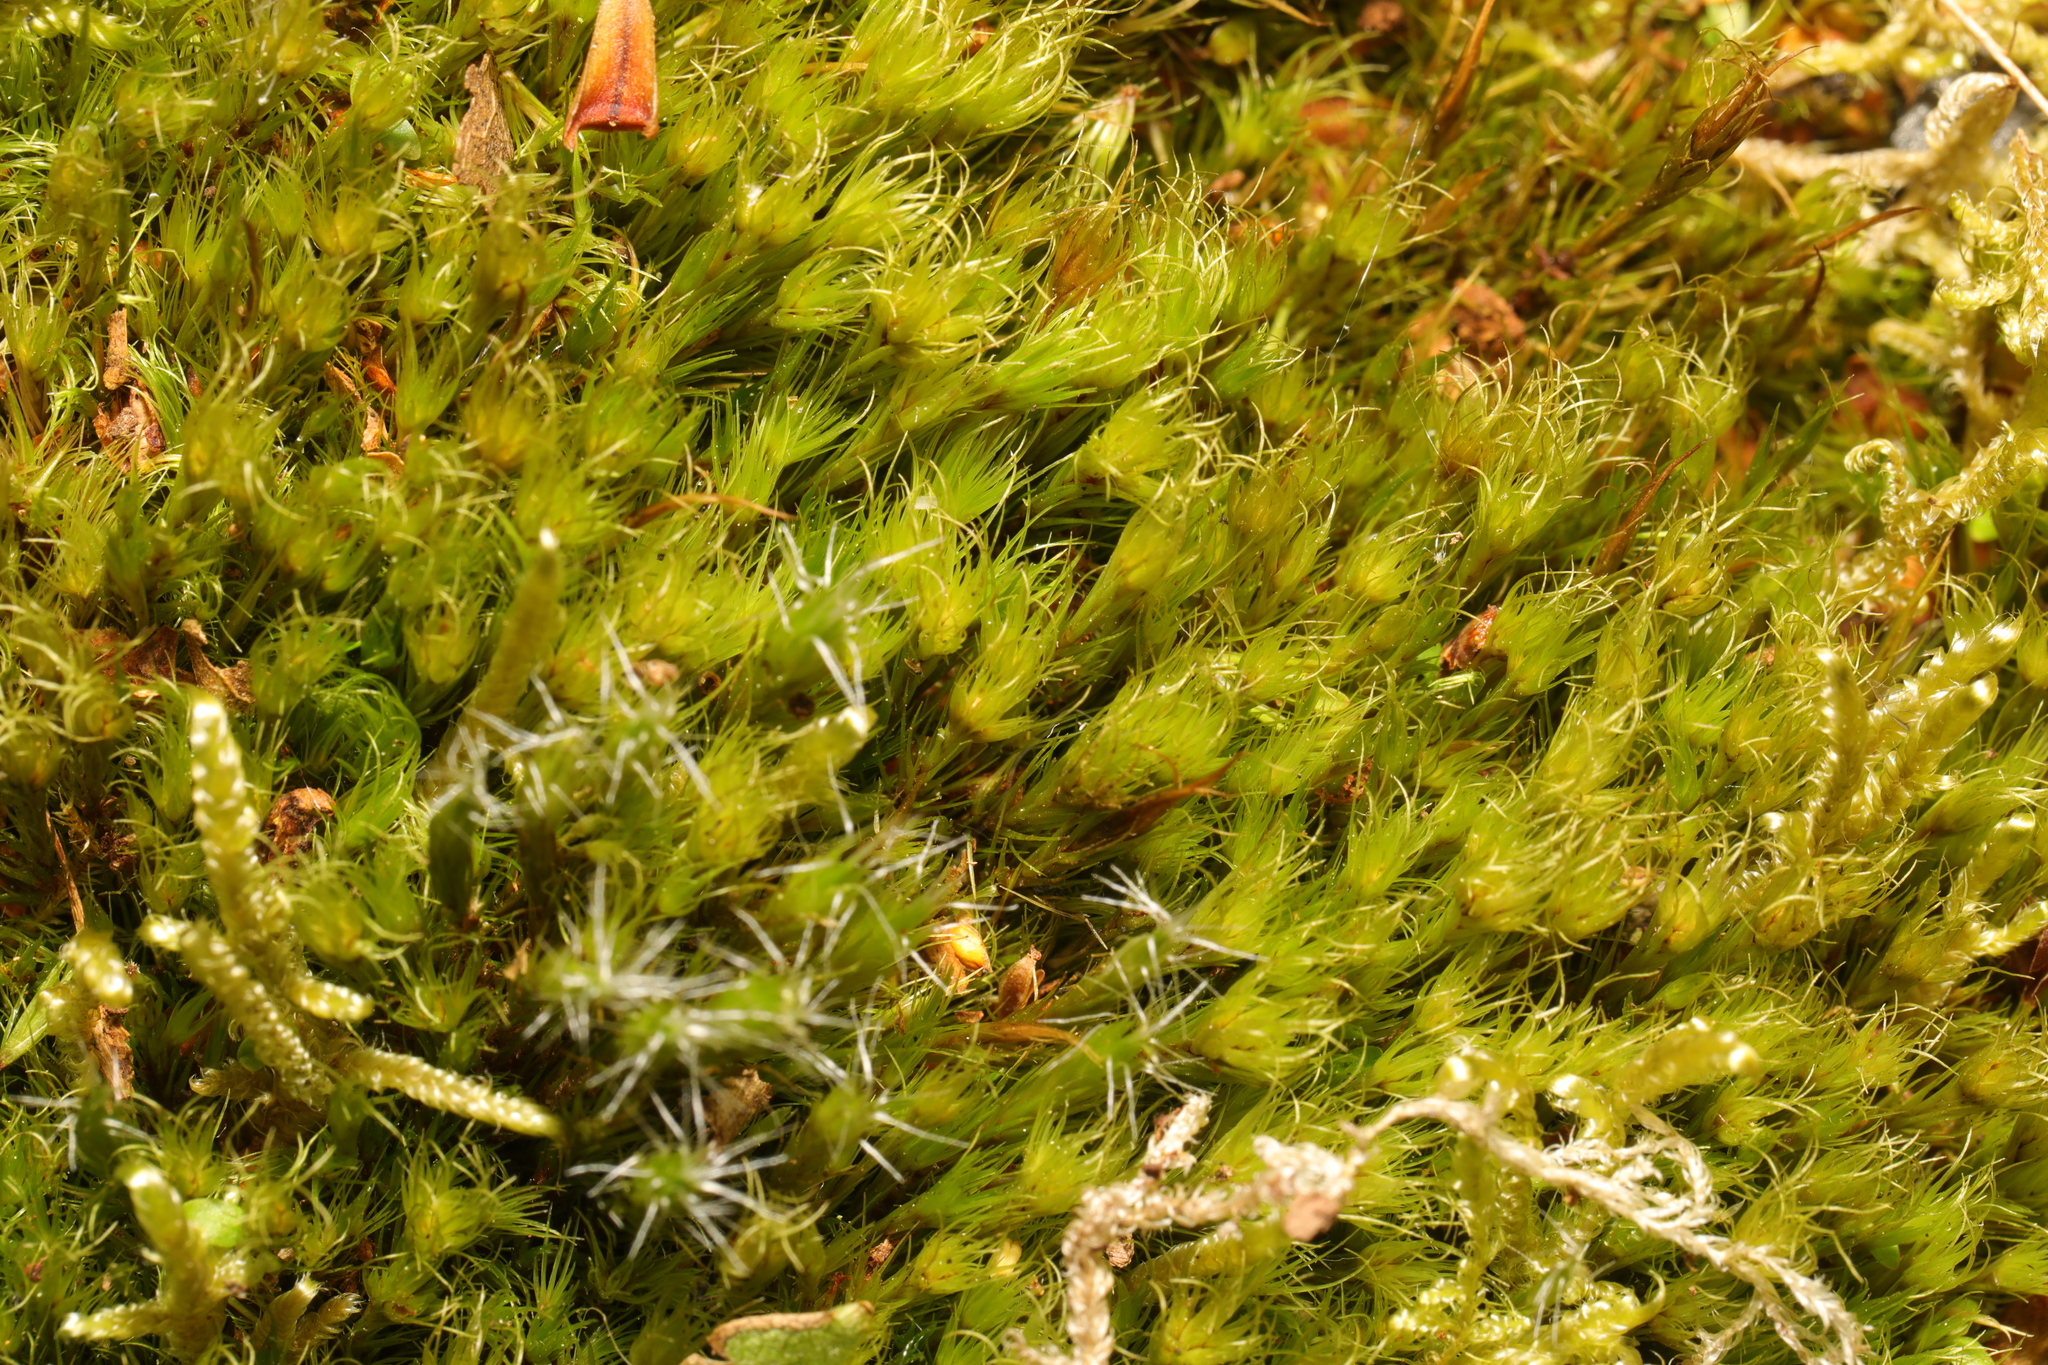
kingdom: Plantae
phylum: Bryophyta
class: Bryopsida
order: Dicranales
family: Leucobryaceae
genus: Campylopus
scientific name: Campylopus introflexus
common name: Heath star moss
